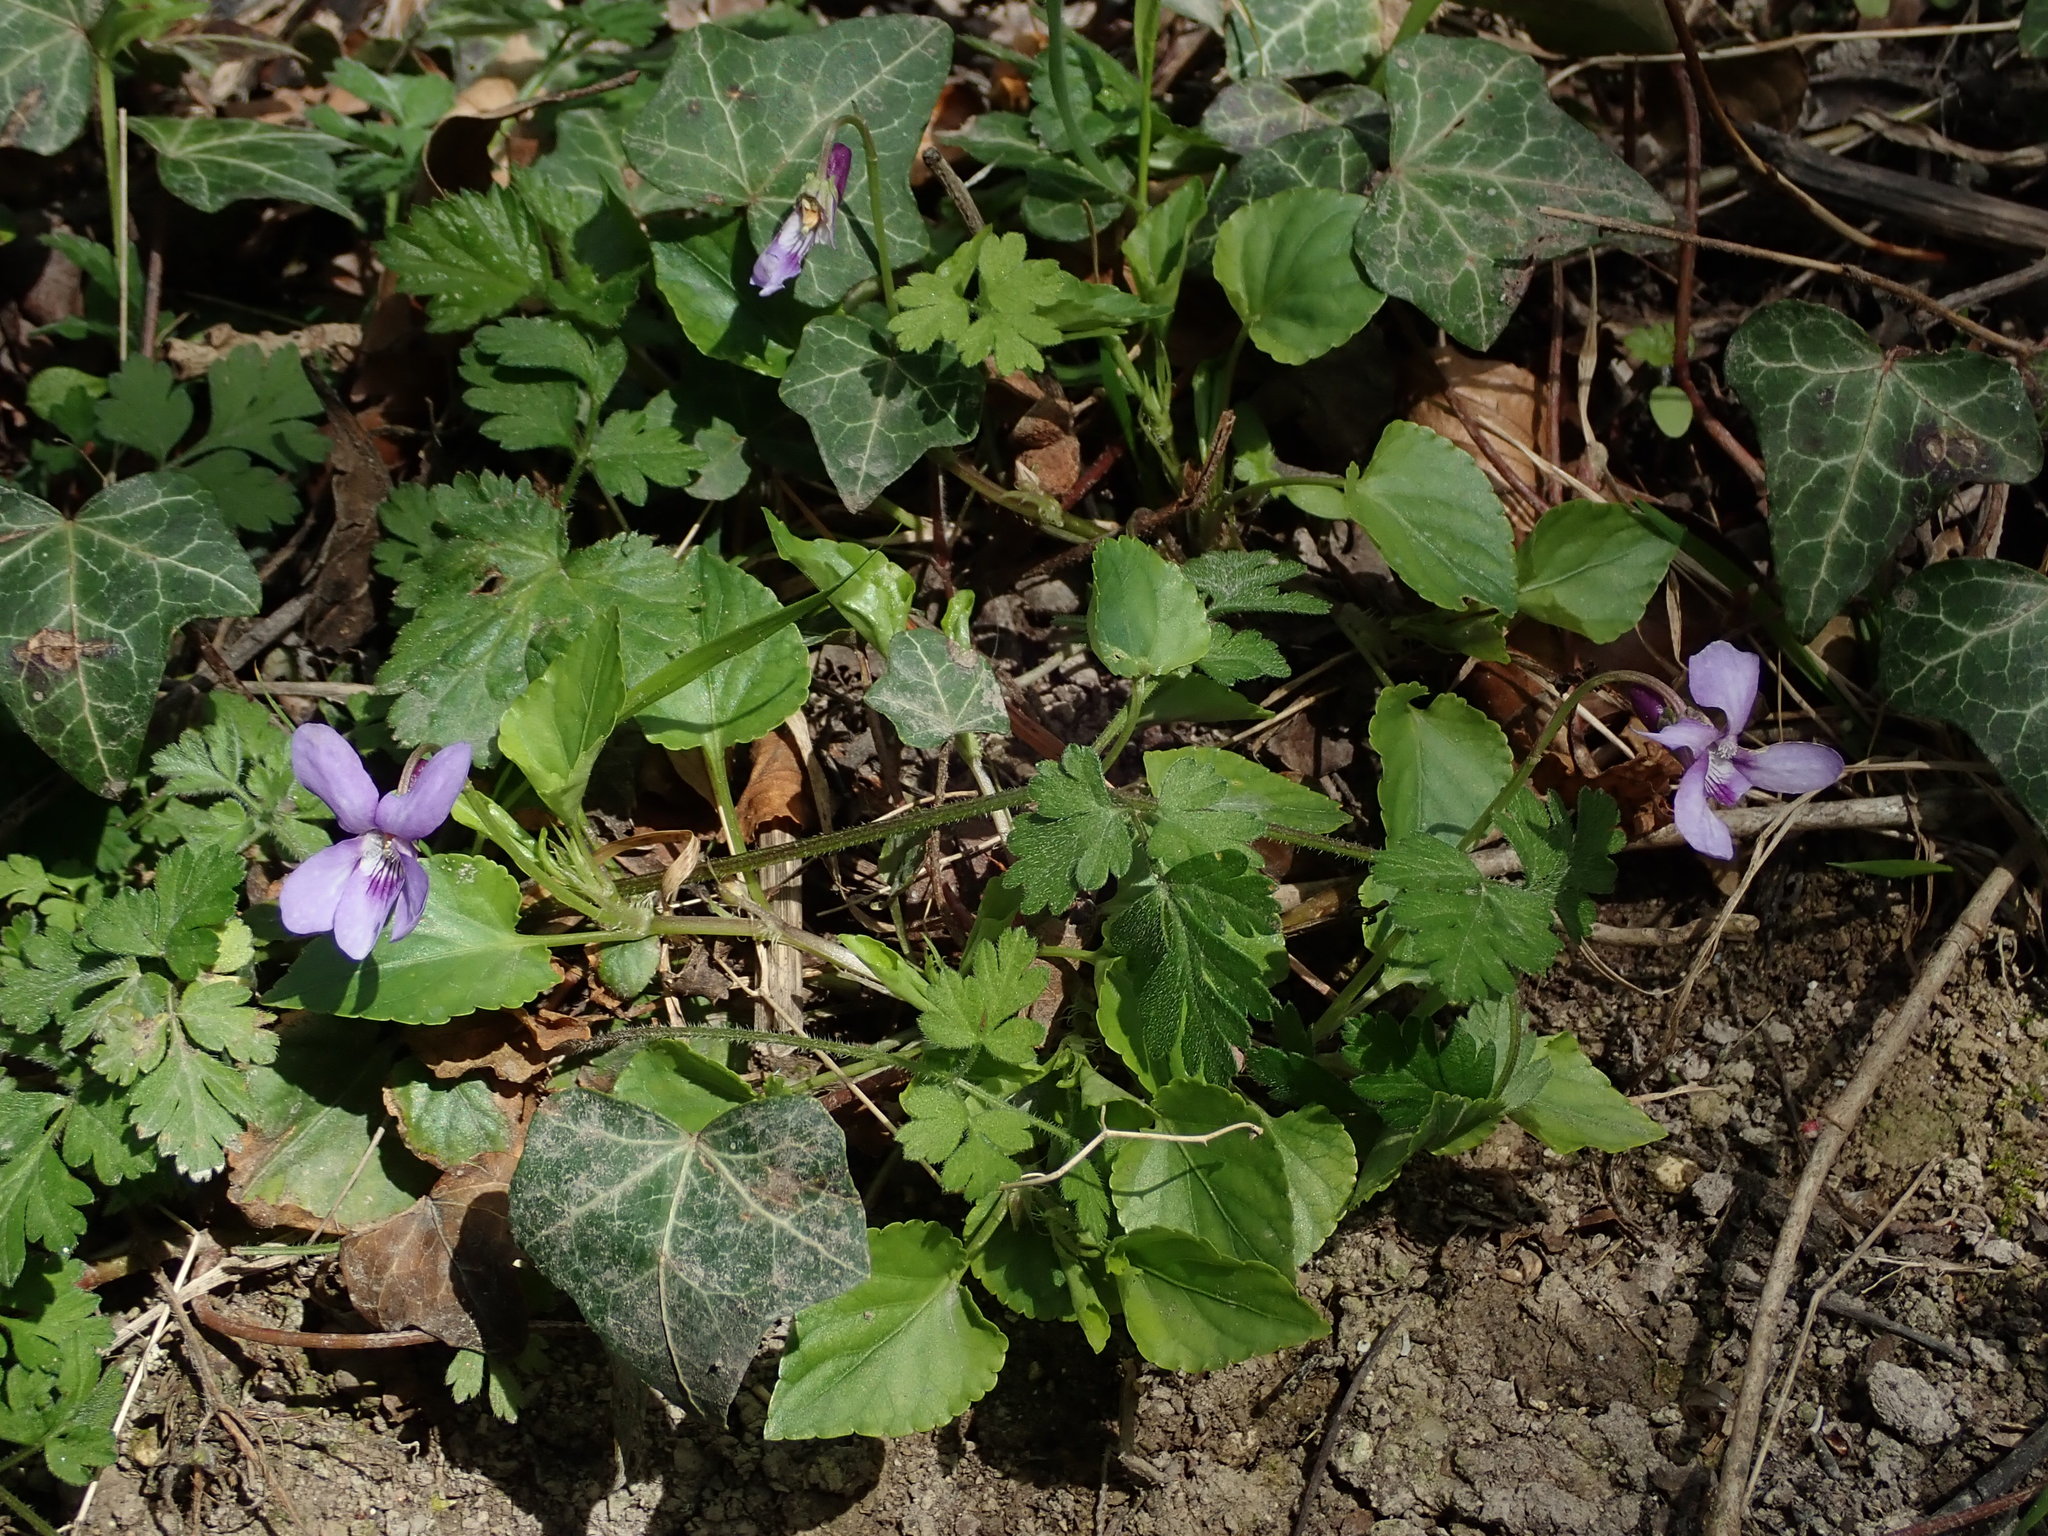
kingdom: Plantae
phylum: Tracheophyta
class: Magnoliopsida
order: Malpighiales
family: Violaceae
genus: Viola
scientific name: Viola reichenbachiana
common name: Early dog-violet
